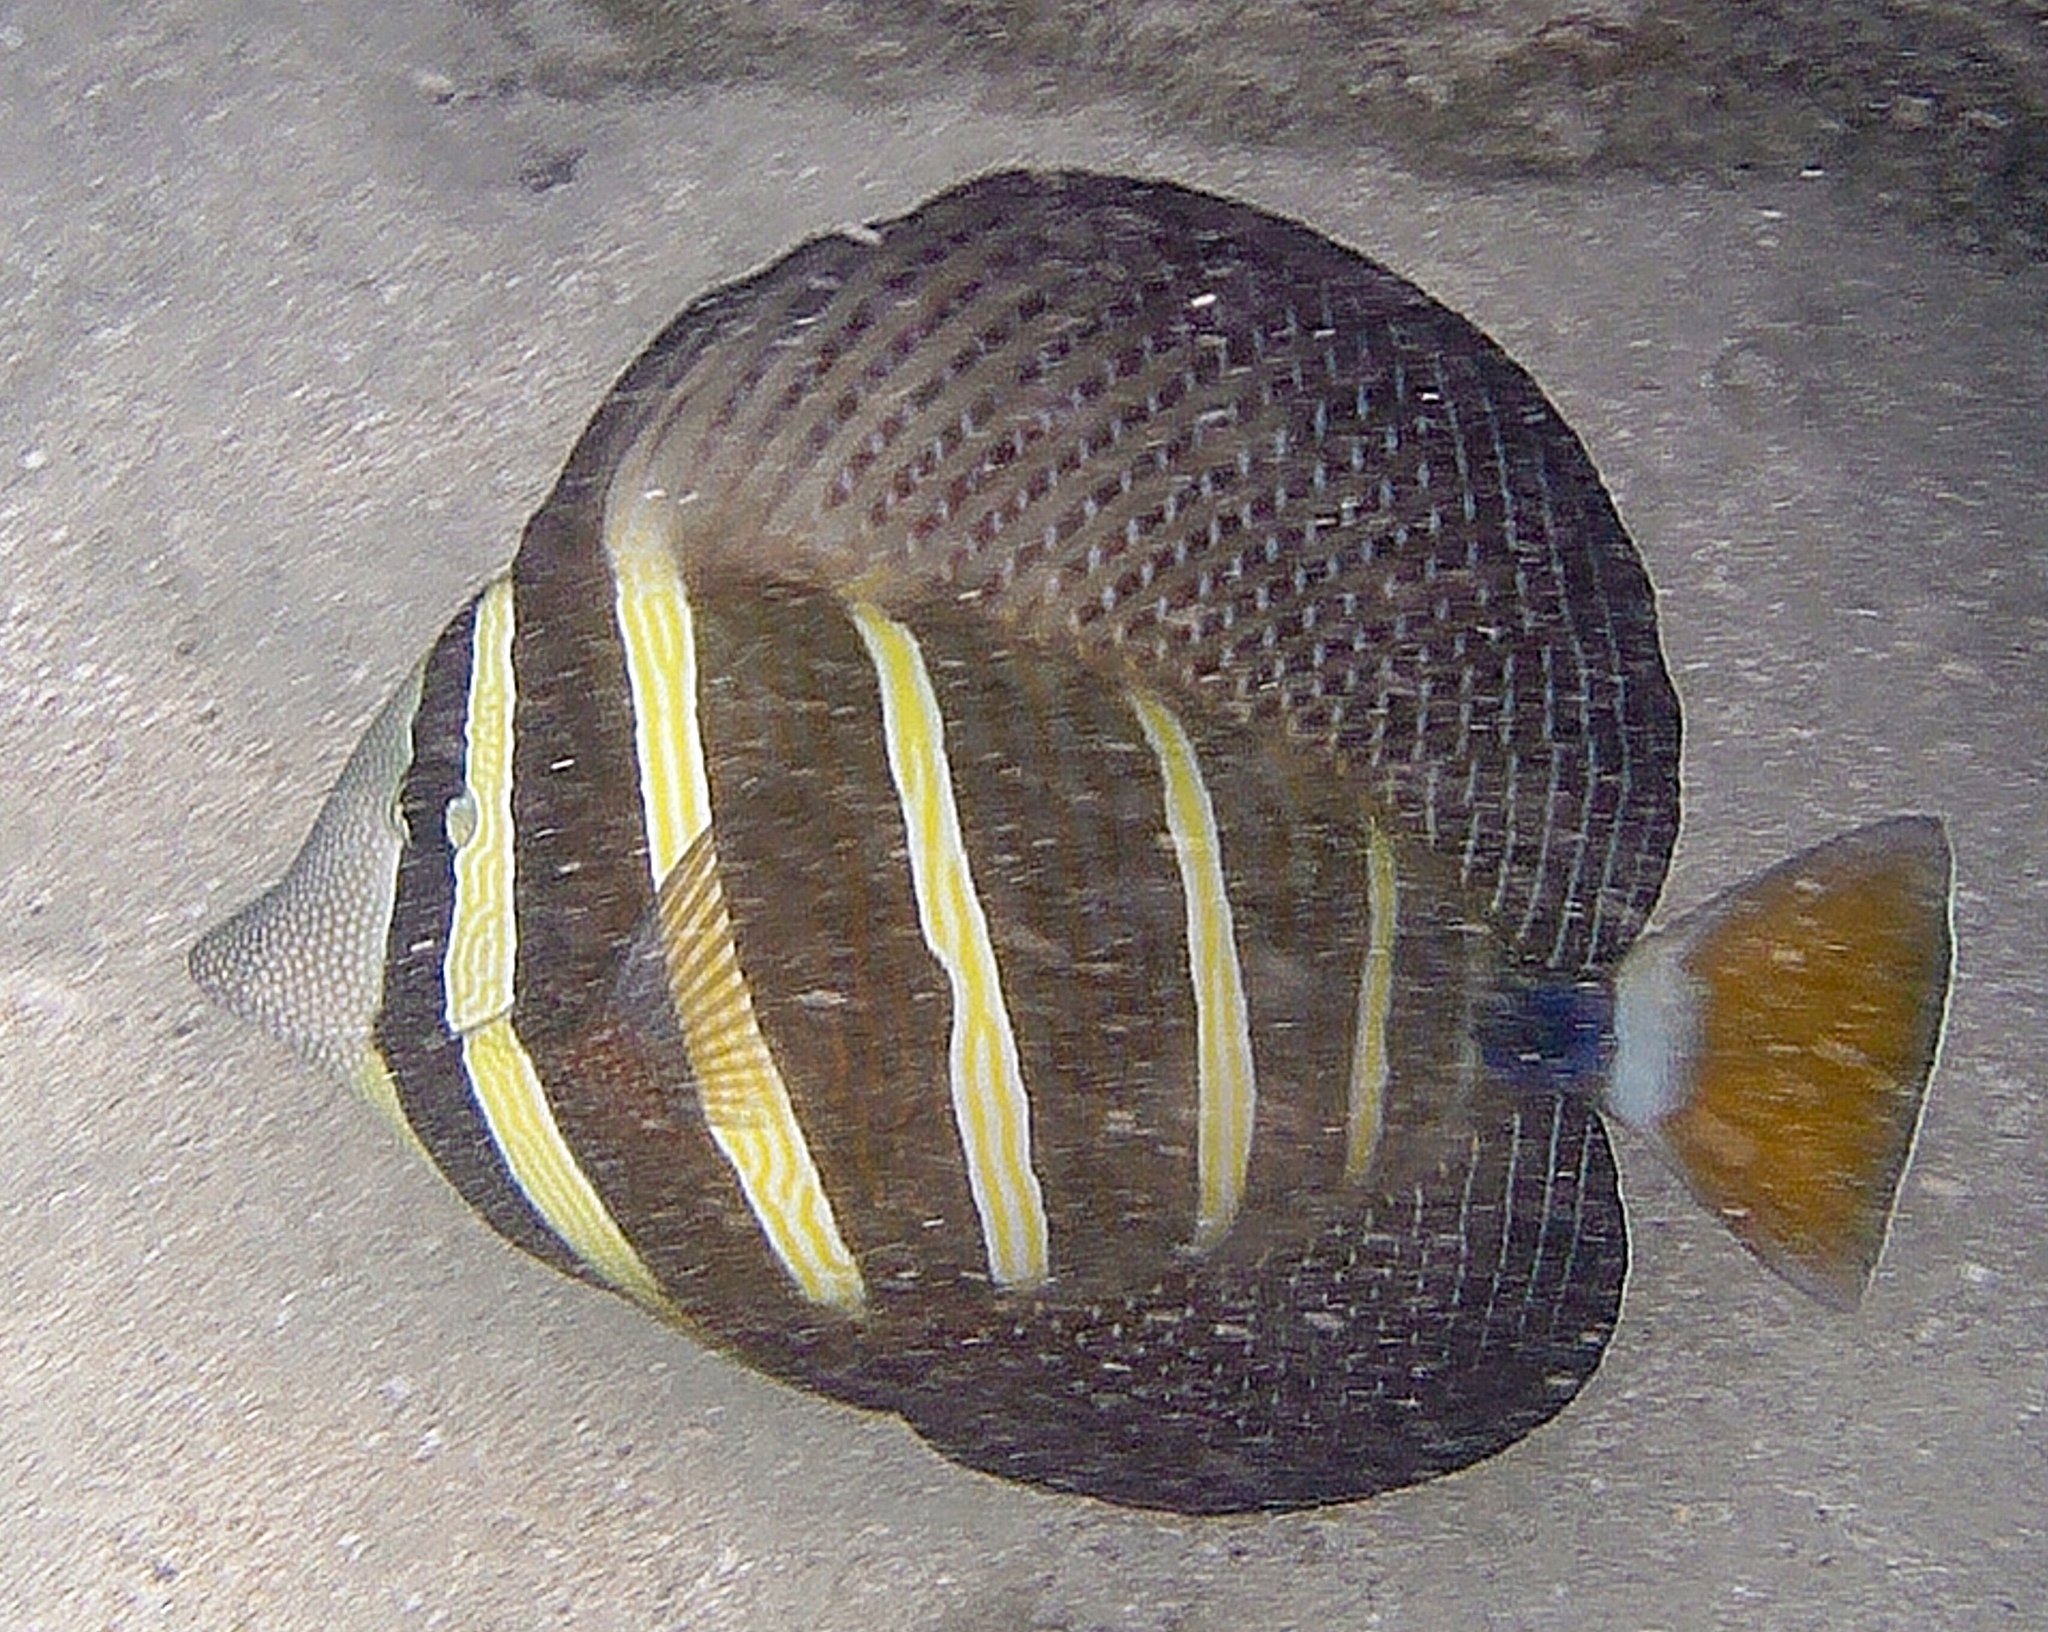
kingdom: Animalia
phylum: Chordata
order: Perciformes
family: Acanthuridae
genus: Zebrasoma
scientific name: Zebrasoma veliferum
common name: Sailfin surgeonfish
